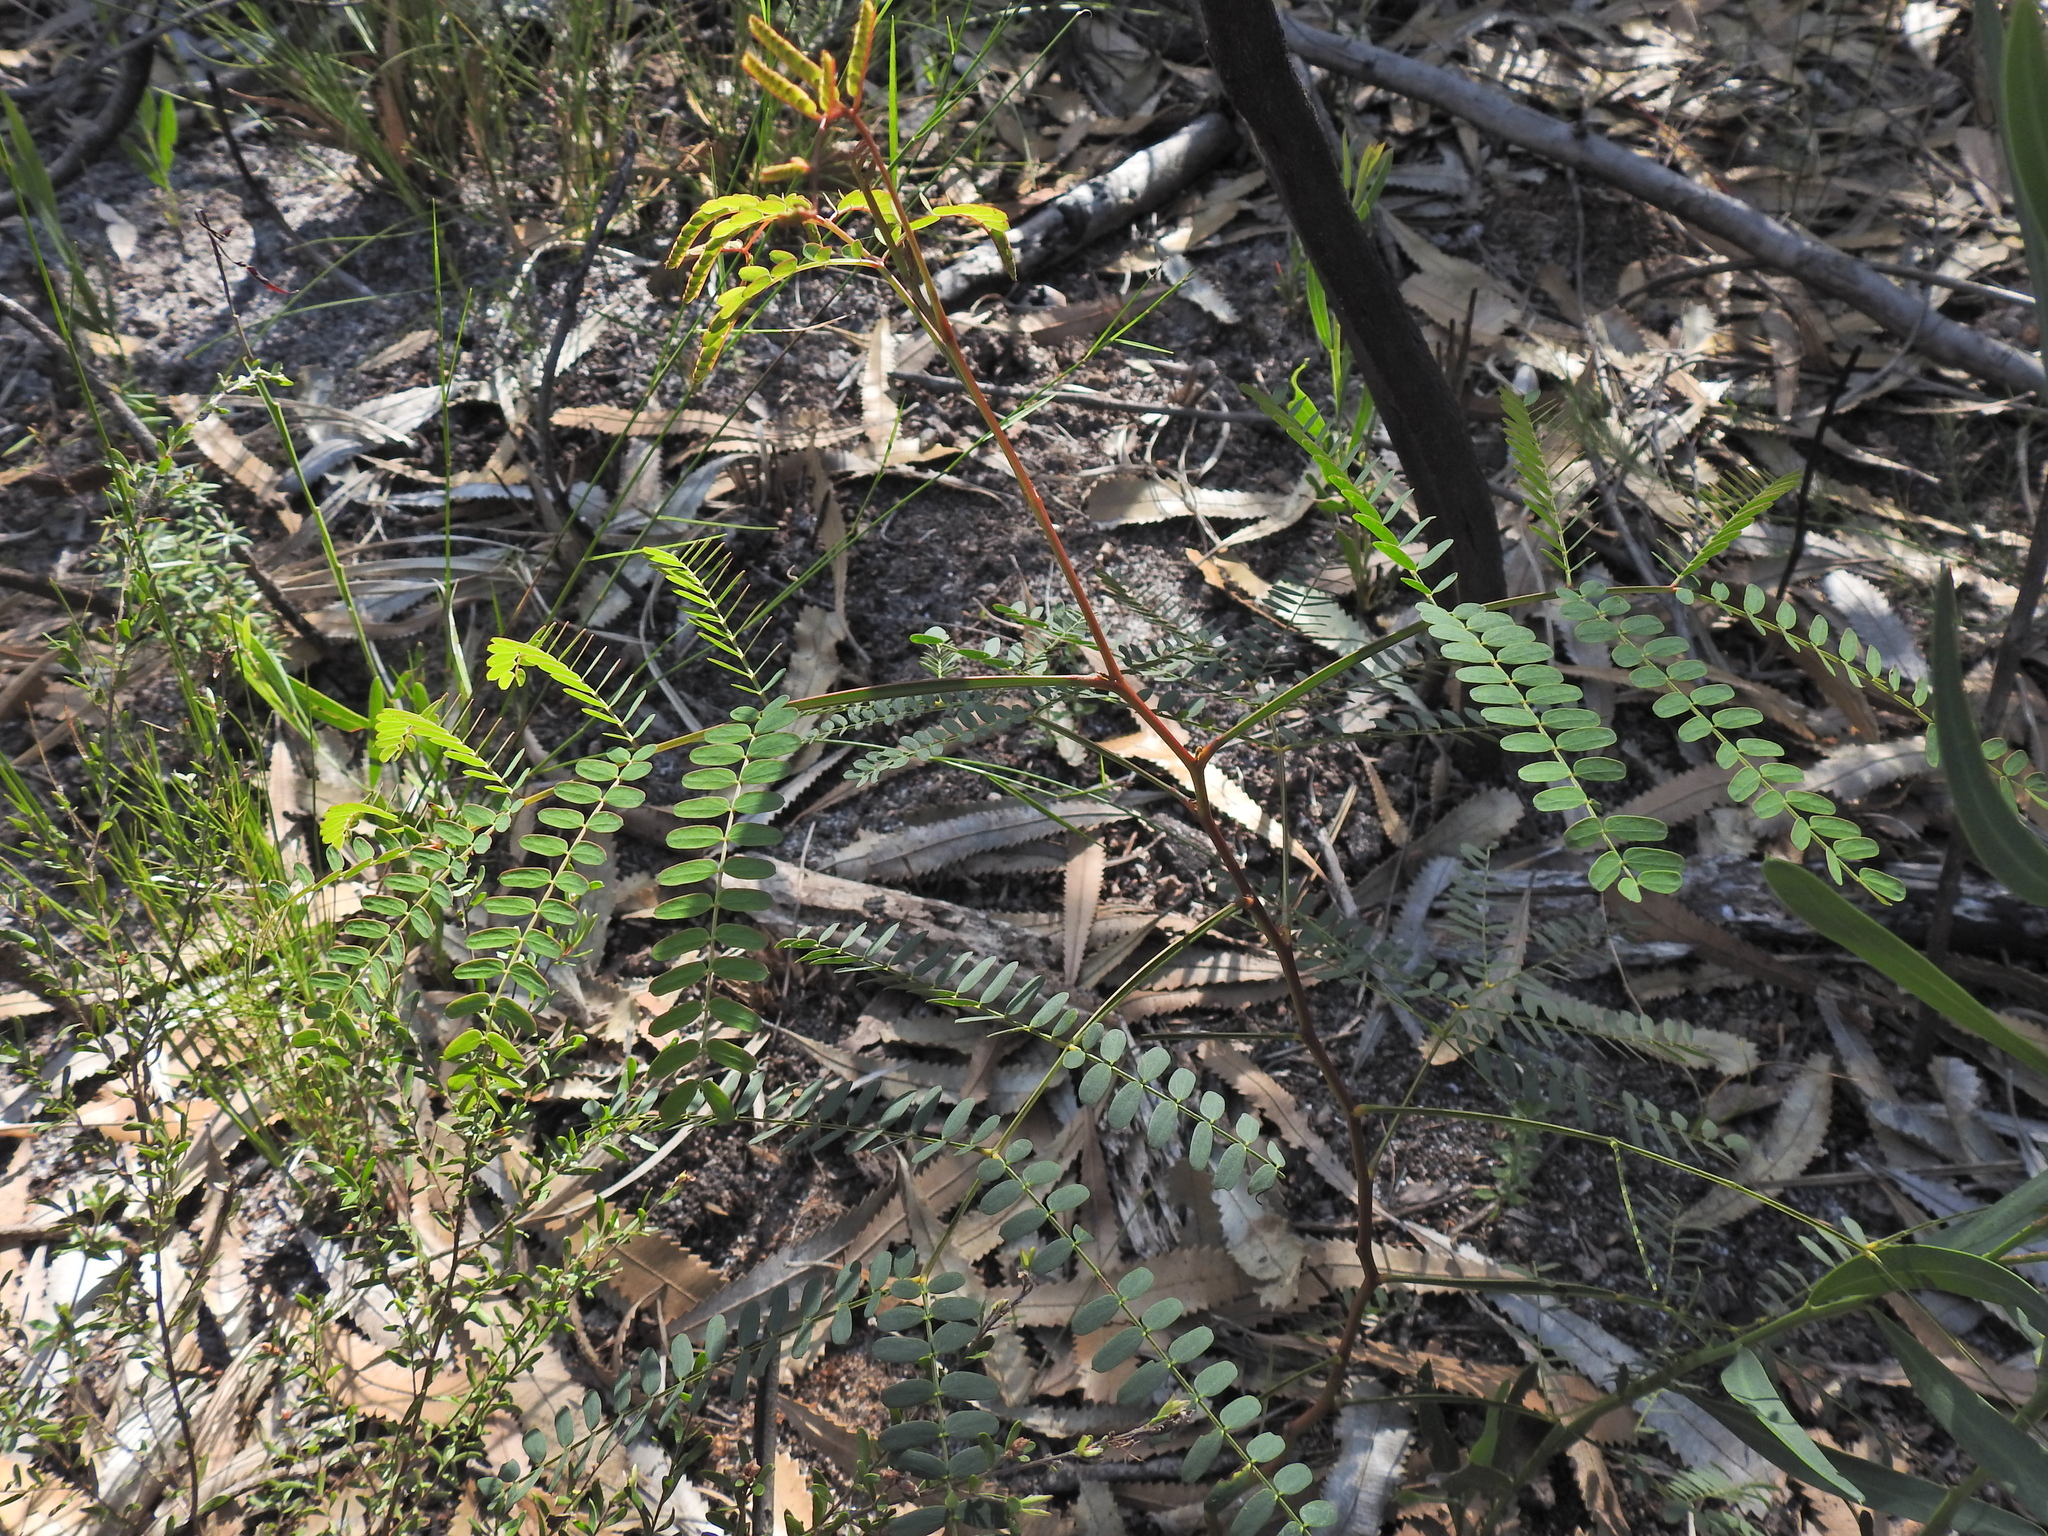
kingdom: Plantae
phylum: Tracheophyta
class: Magnoliopsida
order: Fabales
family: Fabaceae
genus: Acacia
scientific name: Acacia attenuata
